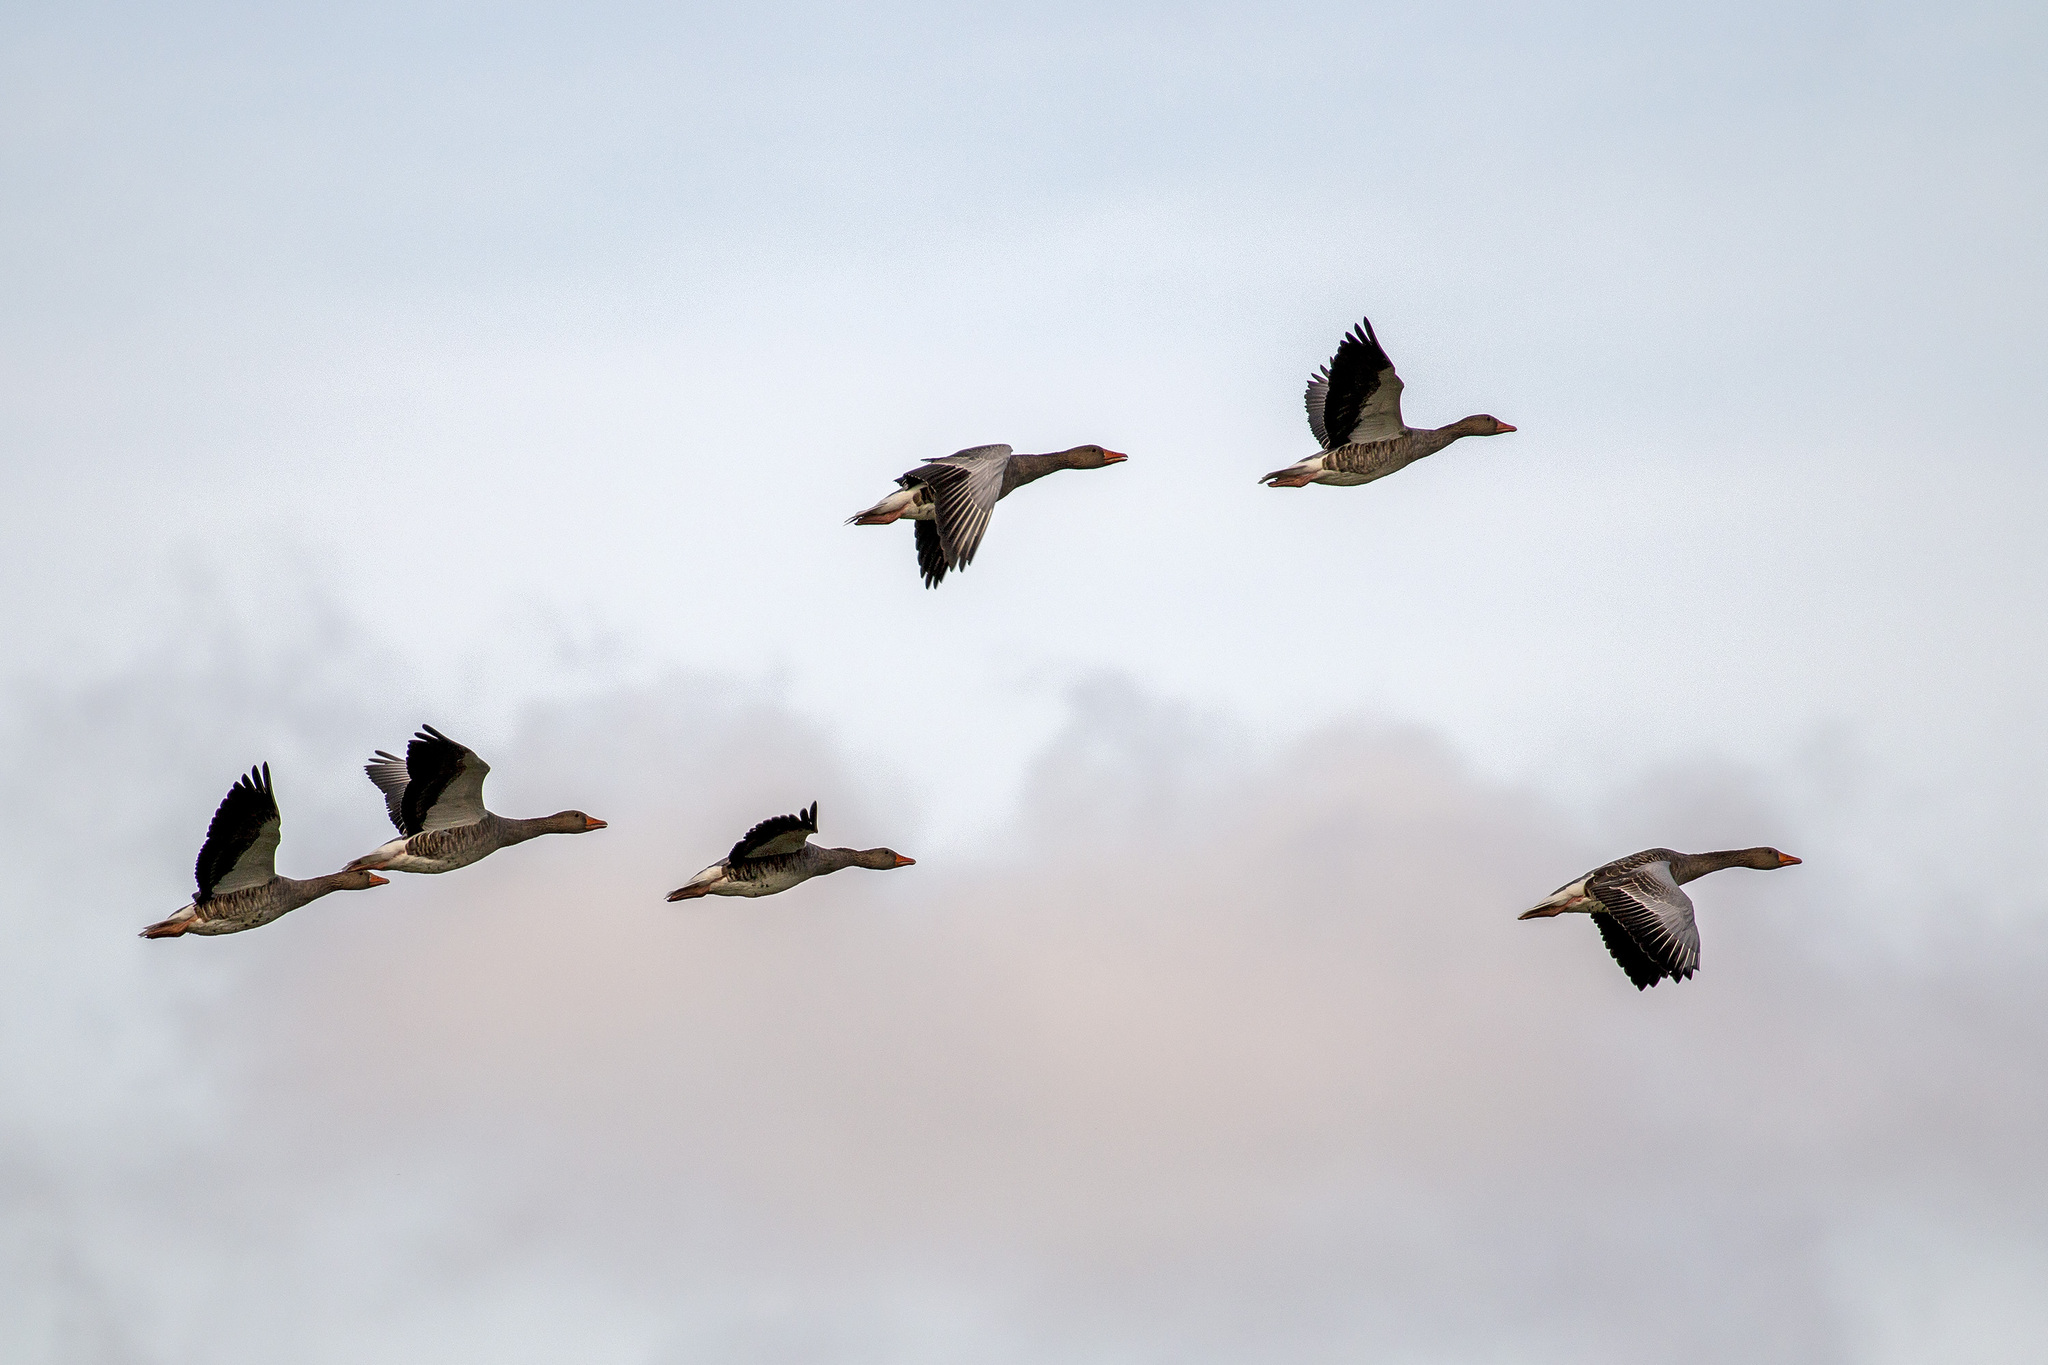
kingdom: Animalia
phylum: Chordata
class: Aves
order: Anseriformes
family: Anatidae
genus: Anser
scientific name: Anser anser
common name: Greylag goose
